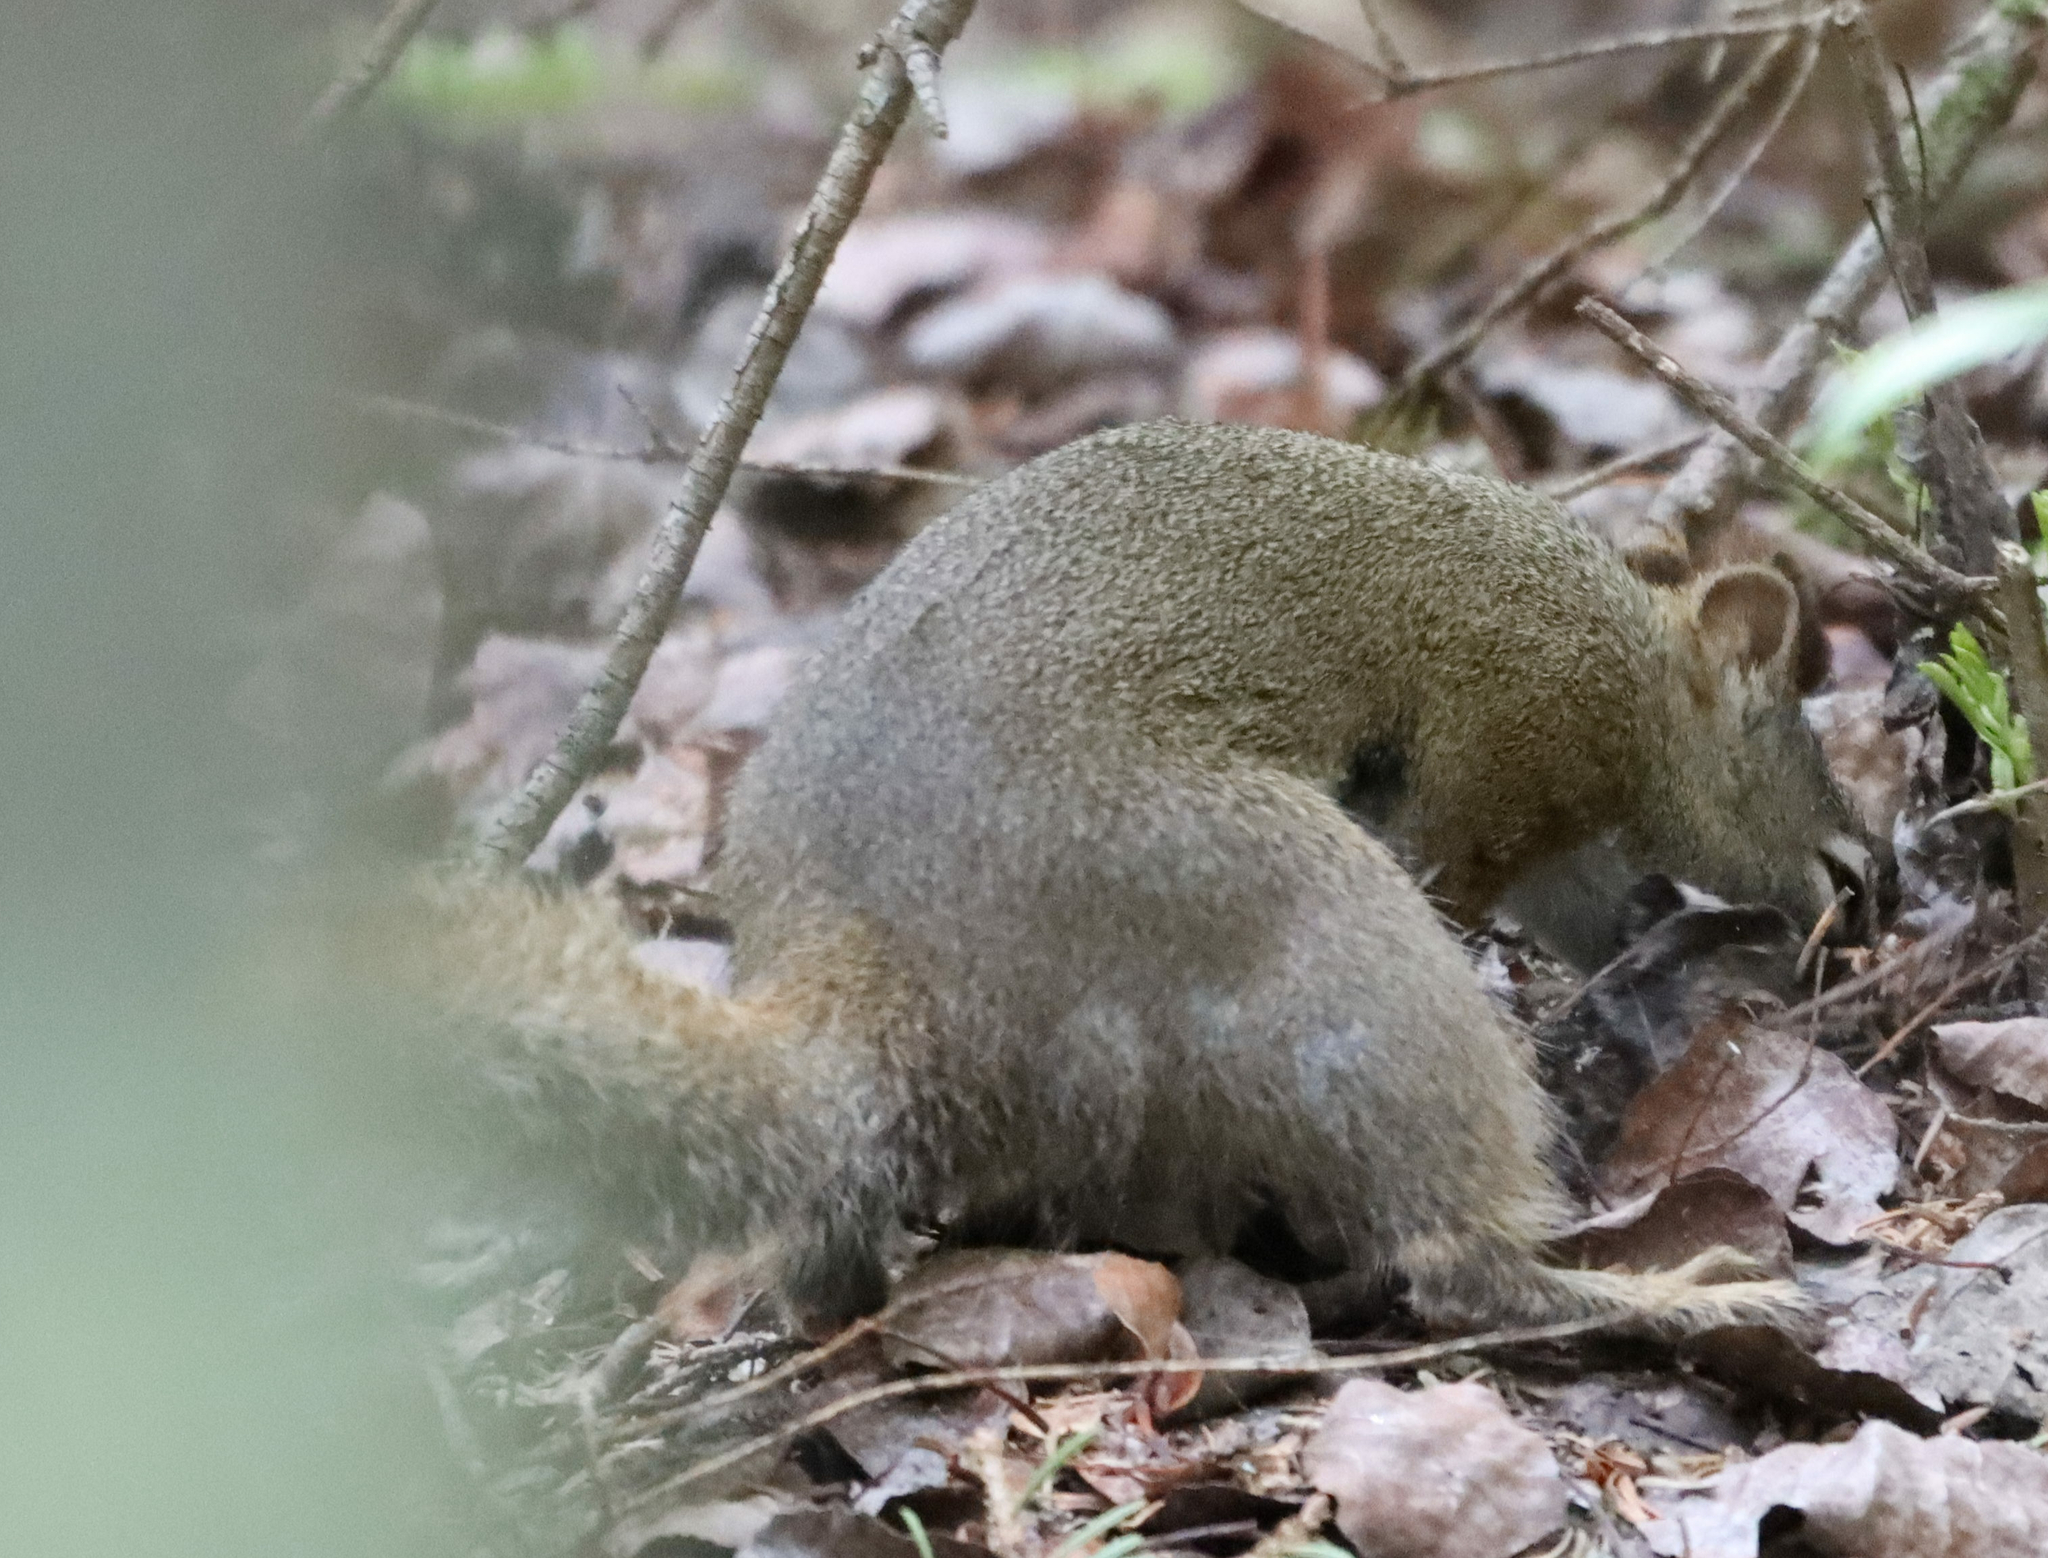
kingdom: Animalia
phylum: Chordata
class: Mammalia
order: Rodentia
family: Sciuridae
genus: Tamiasciurus
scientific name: Tamiasciurus hudsonicus
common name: Red squirrel
